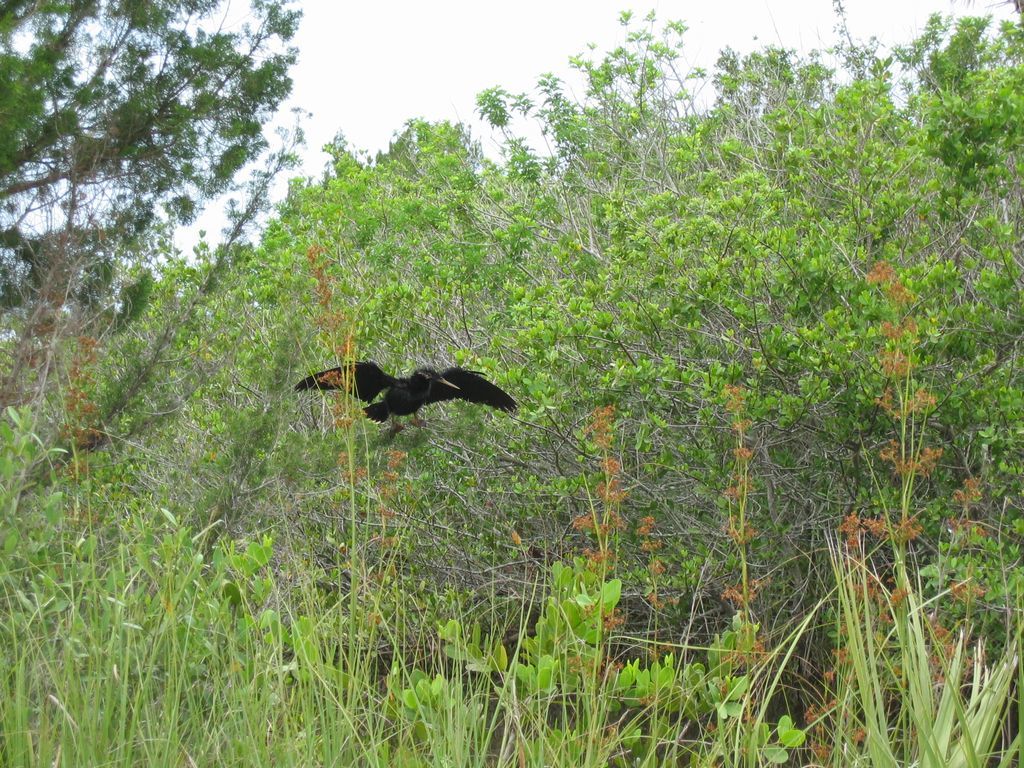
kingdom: Animalia
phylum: Chordata
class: Aves
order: Suliformes
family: Anhingidae
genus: Anhinga
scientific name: Anhinga anhinga
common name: Anhinga
